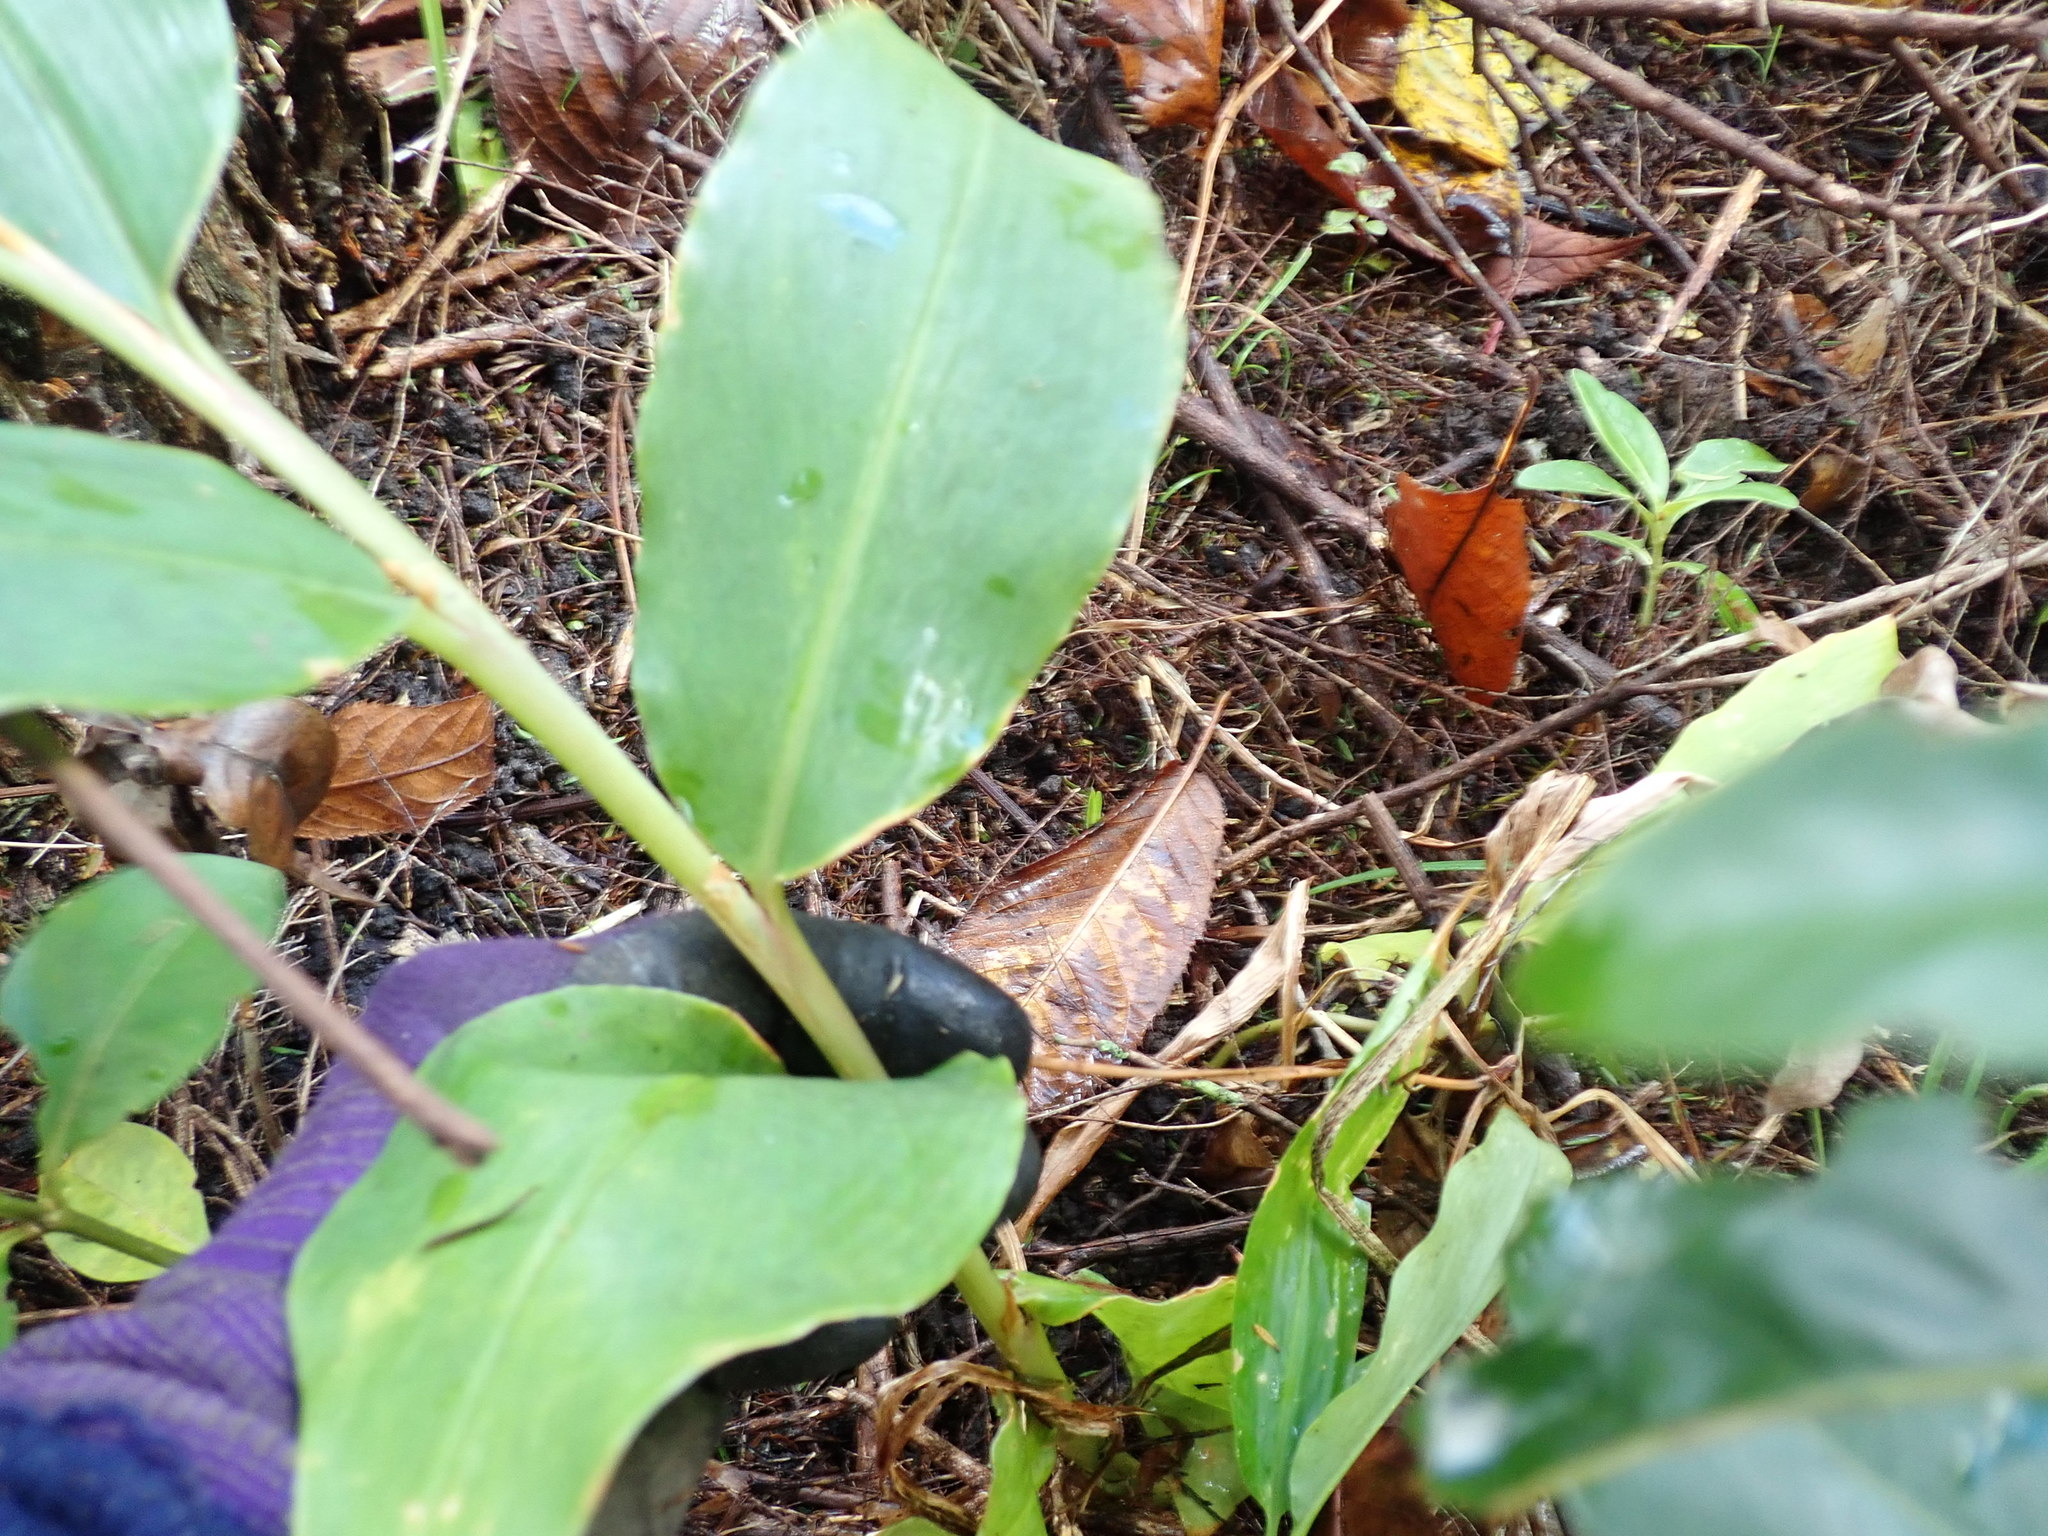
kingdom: Plantae
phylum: Tracheophyta
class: Liliopsida
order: Zingiberales
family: Zingiberaceae
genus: Hedychium
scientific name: Hedychium gardnerianum
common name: Himalayan ginger
